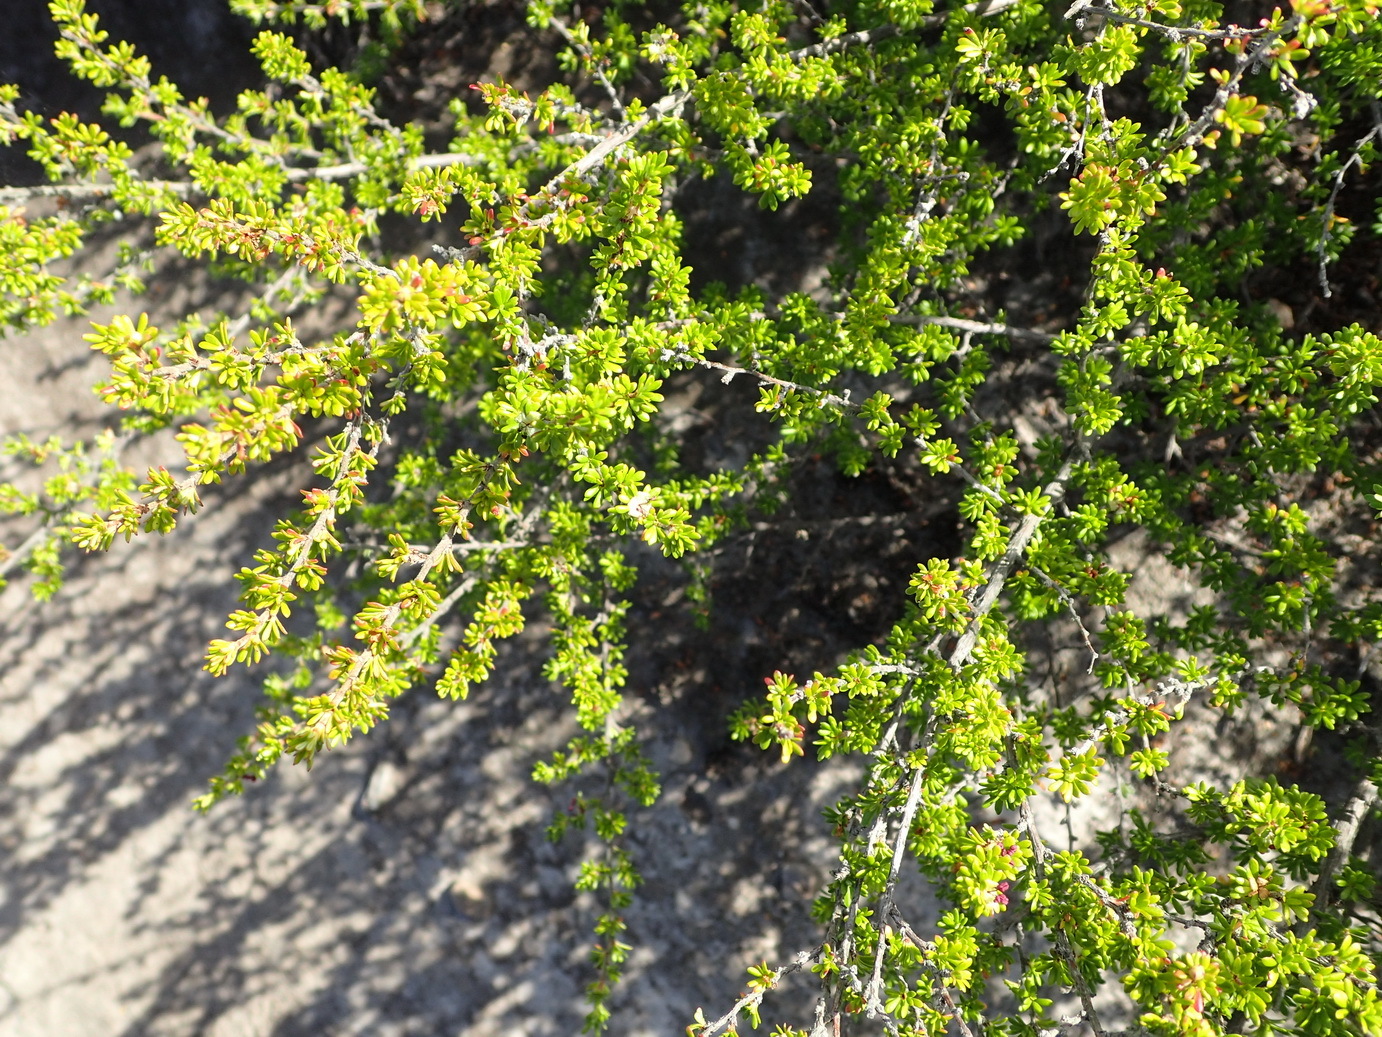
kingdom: Plantae
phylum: Tracheophyta
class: Magnoliopsida
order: Rosales
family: Rosaceae
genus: Cliffortia
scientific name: Cliffortia serpyllifolia
